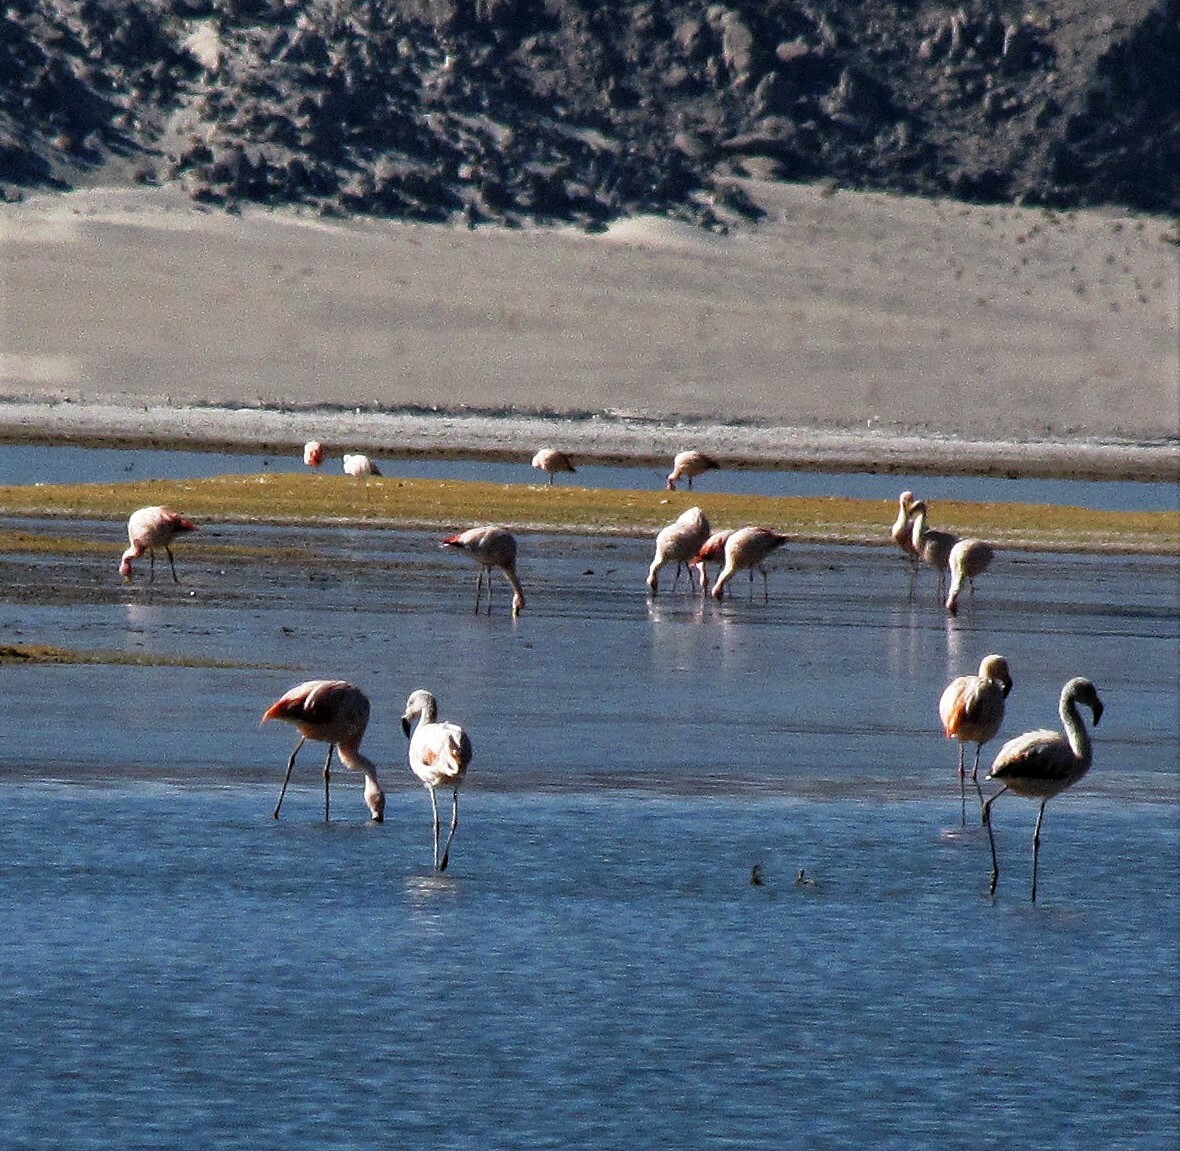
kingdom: Animalia
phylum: Chordata
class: Aves
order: Phoenicopteriformes
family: Phoenicopteridae
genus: Phoenicopterus
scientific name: Phoenicopterus chilensis
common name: Chilean flamingo
